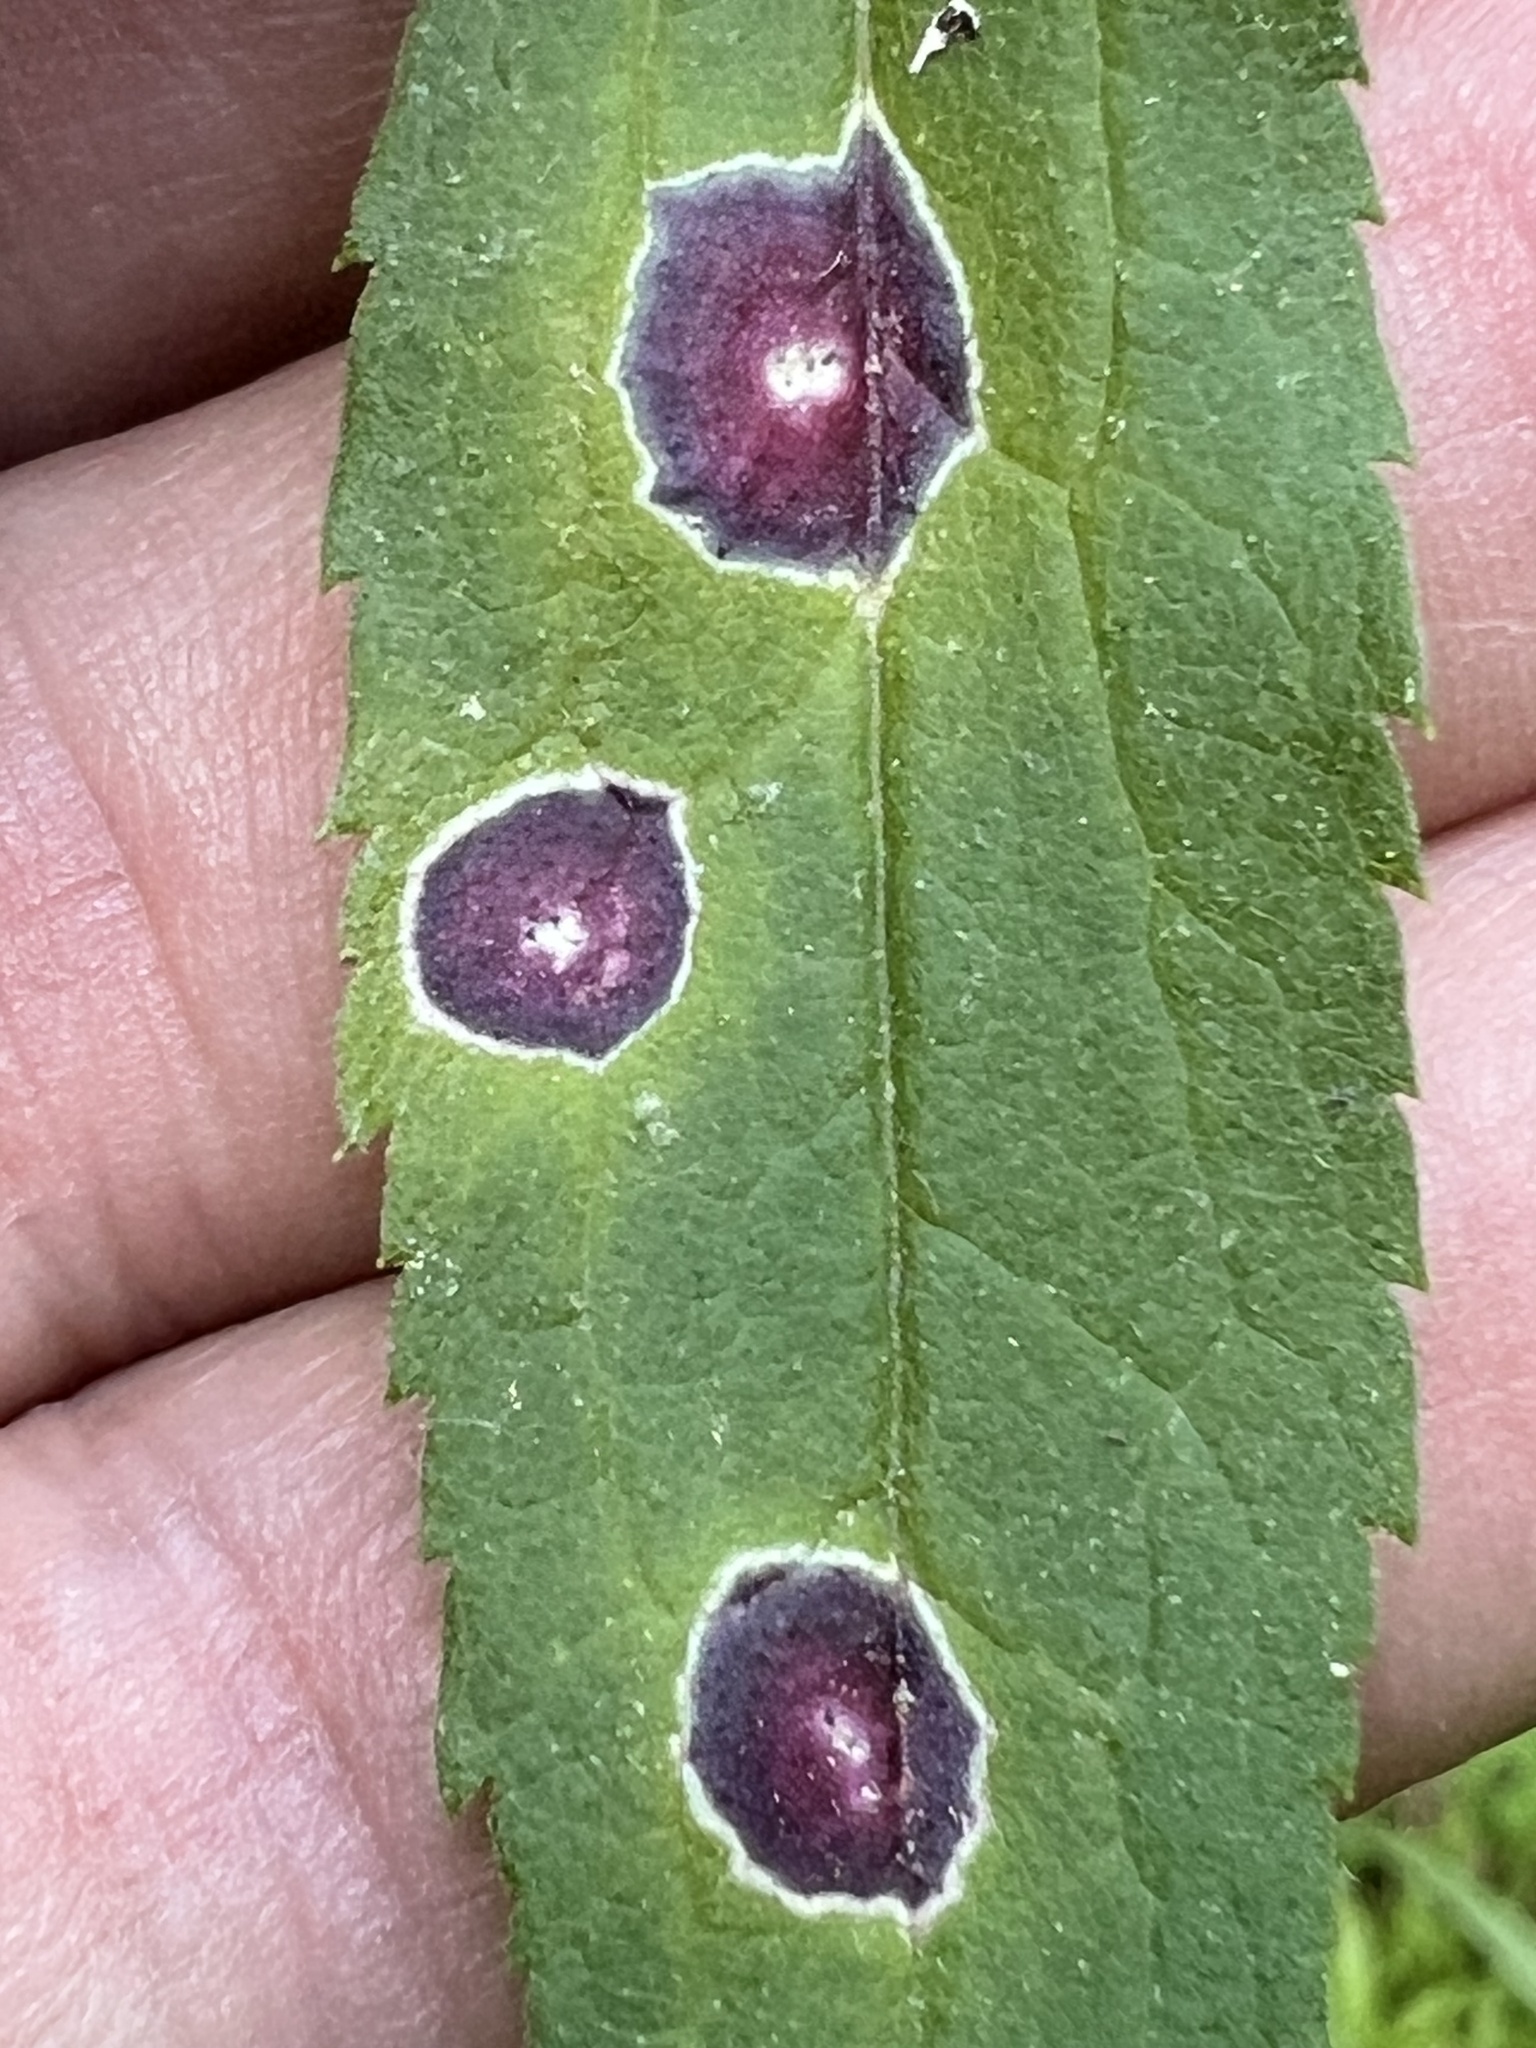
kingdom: Animalia
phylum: Arthropoda
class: Insecta
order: Diptera
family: Cecidomyiidae
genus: Asteromyia
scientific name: Asteromyia carbonifera
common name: Carbonifera goldenrod gall midge
